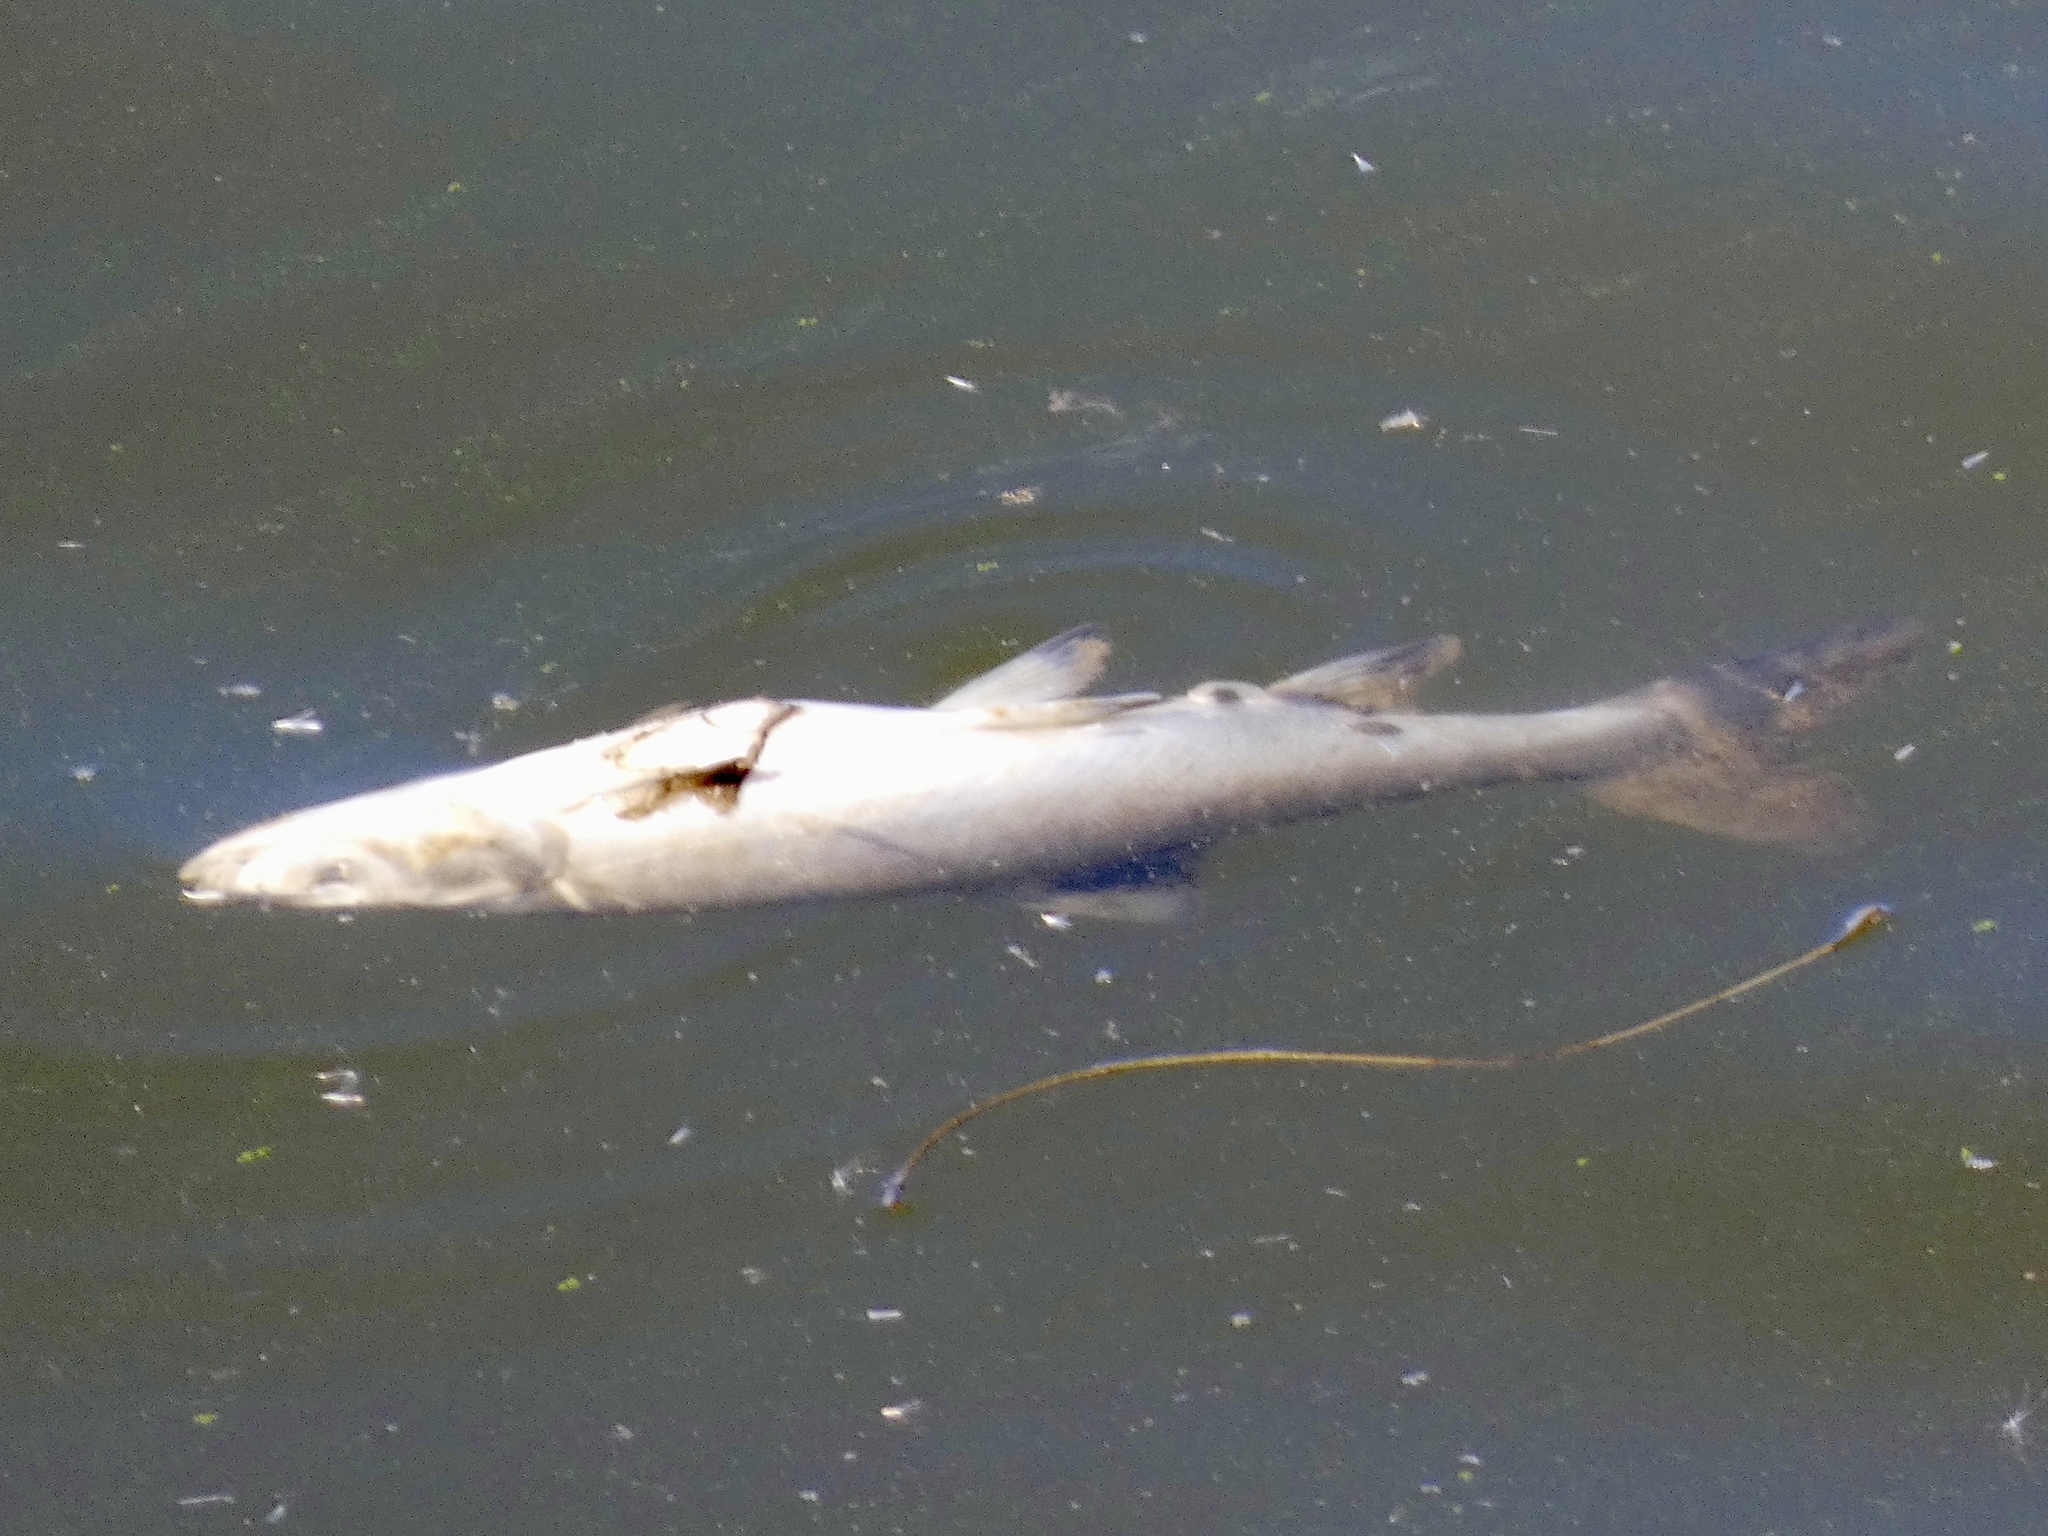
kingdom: Animalia
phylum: Chordata
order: Cypriniformes
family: Cyprinidae
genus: Orthodon
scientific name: Orthodon microlepidotus
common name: Sacramento blackfish
